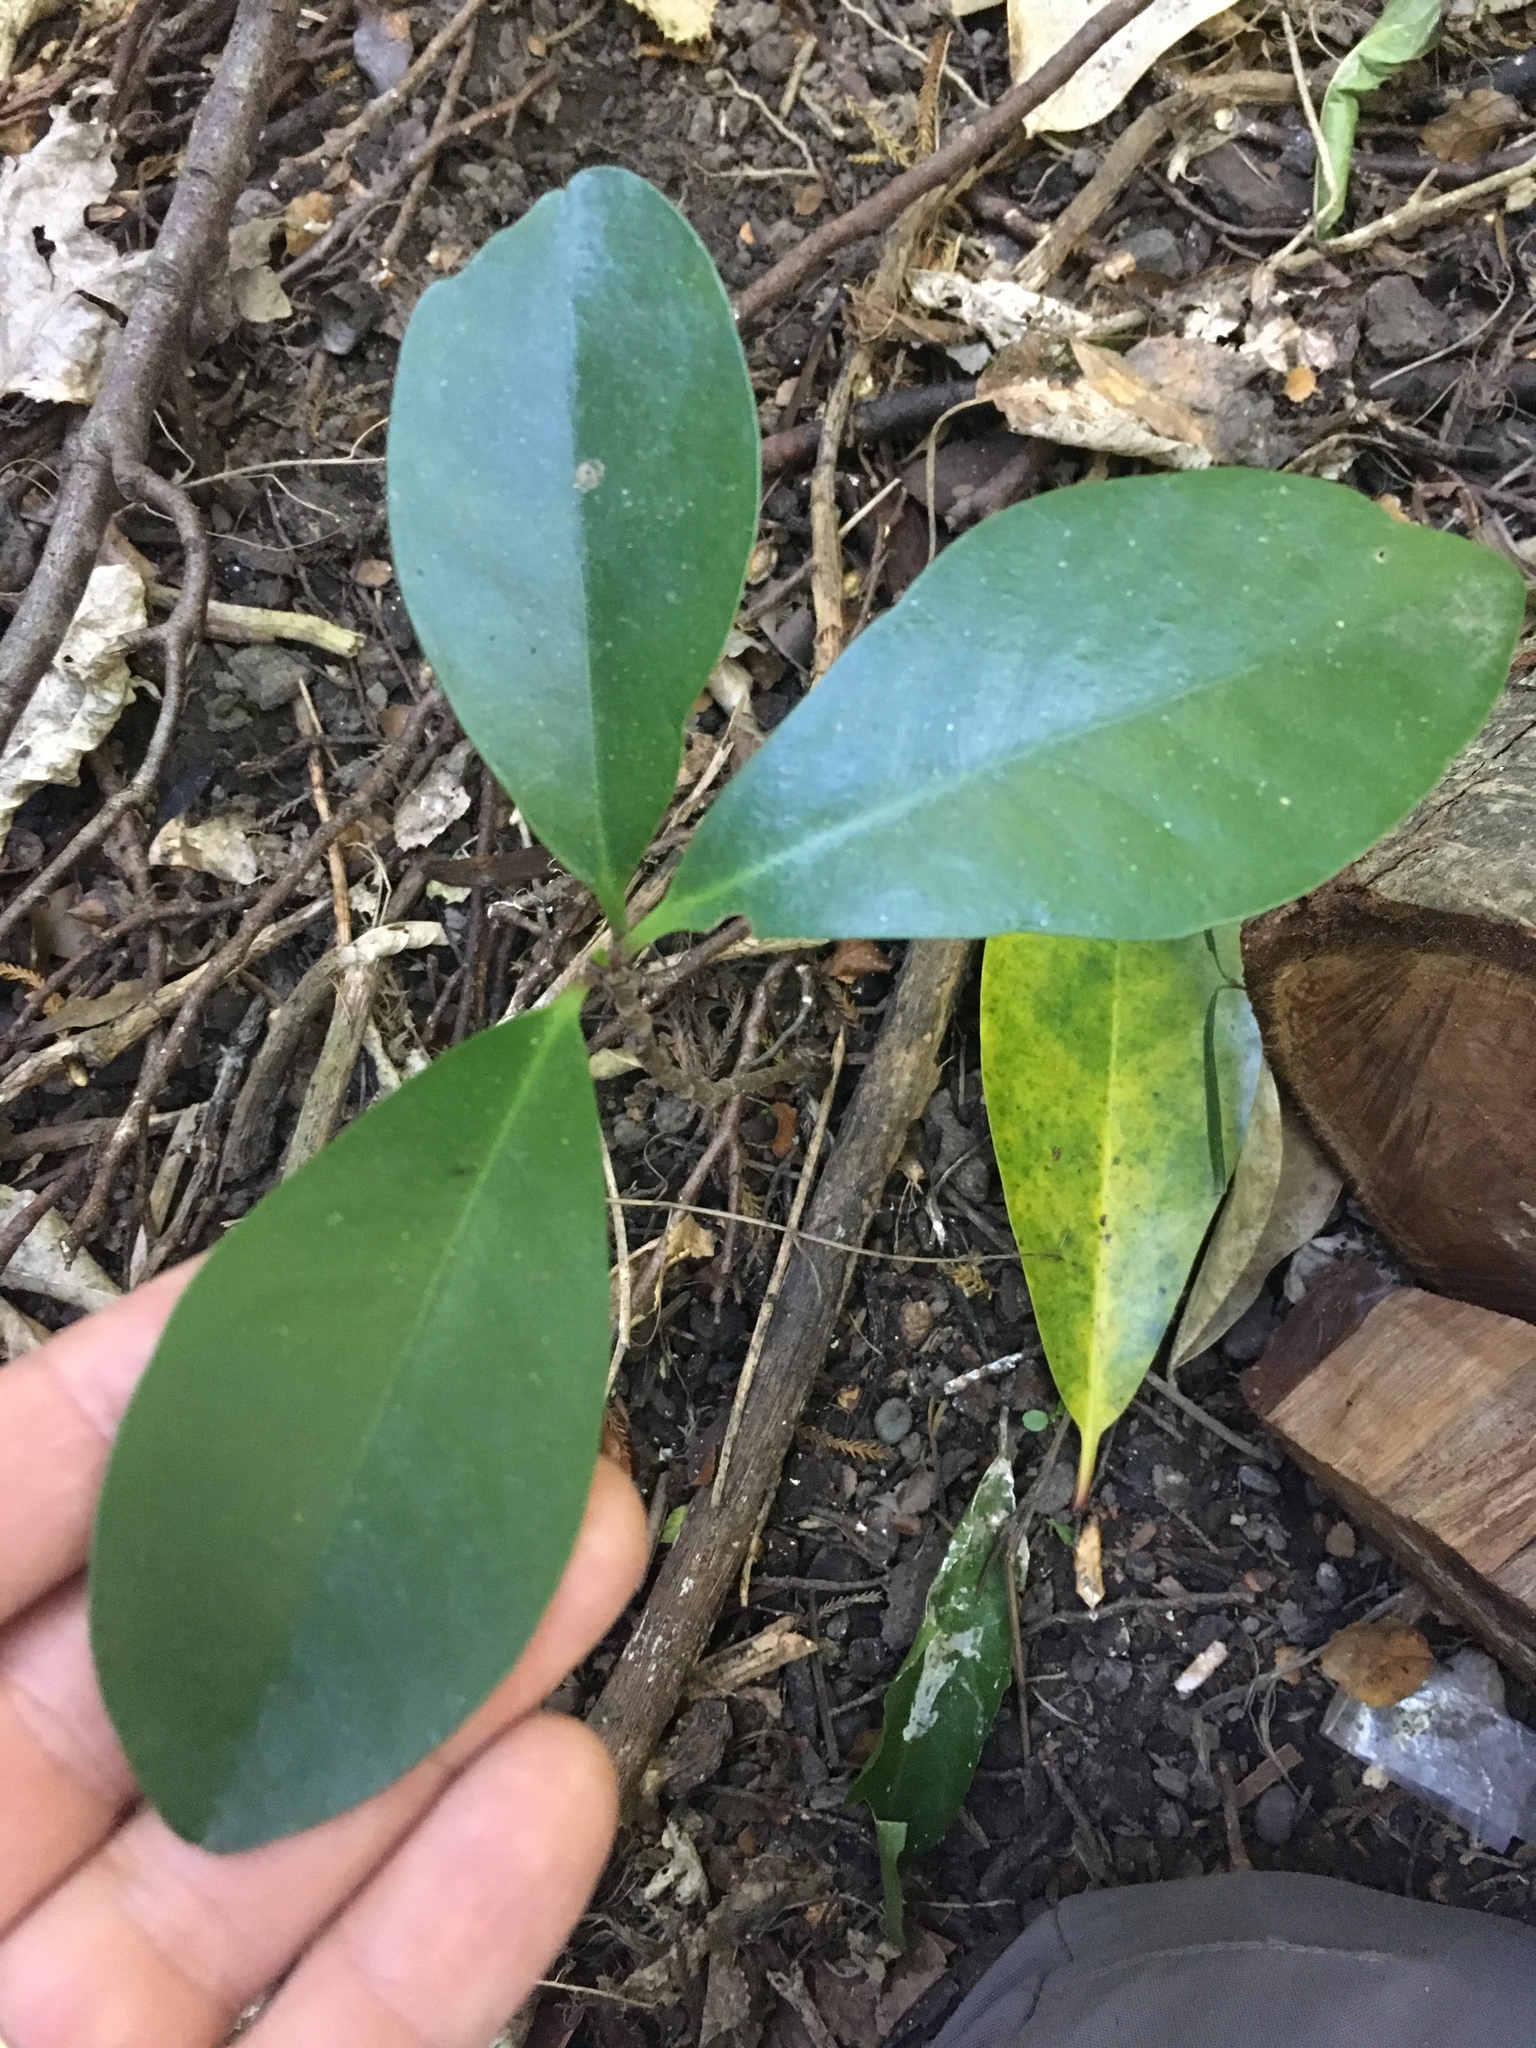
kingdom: Plantae
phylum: Tracheophyta
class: Magnoliopsida
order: Cucurbitales
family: Corynocarpaceae
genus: Corynocarpus
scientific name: Corynocarpus laevigatus
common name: New zealand laurel
